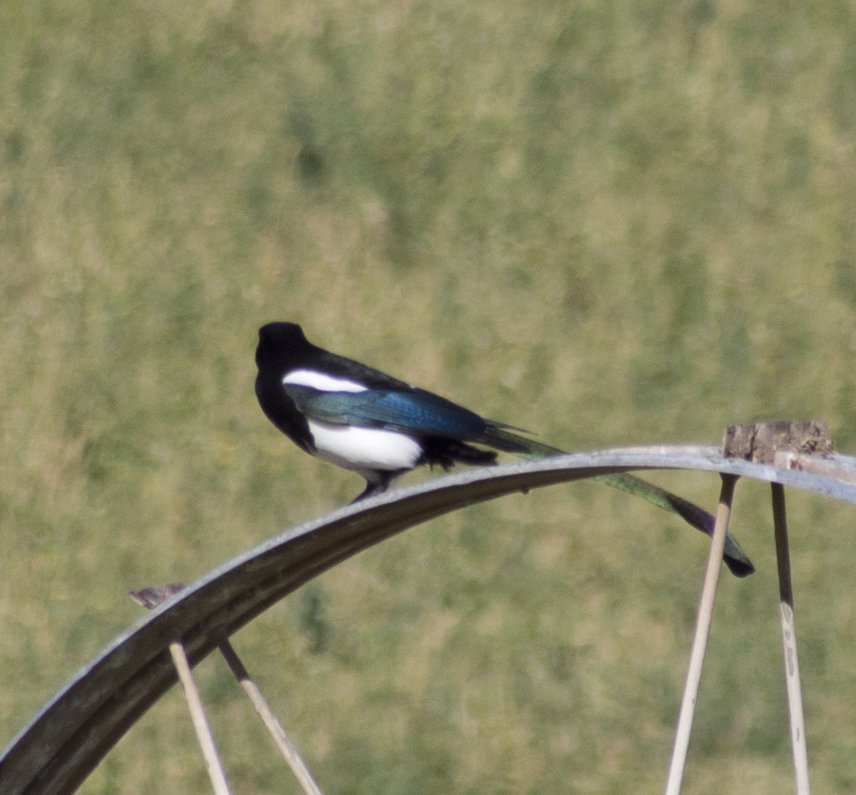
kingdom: Animalia
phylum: Chordata
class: Aves
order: Passeriformes
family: Corvidae
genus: Pica
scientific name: Pica hudsonia
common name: Black-billed magpie
